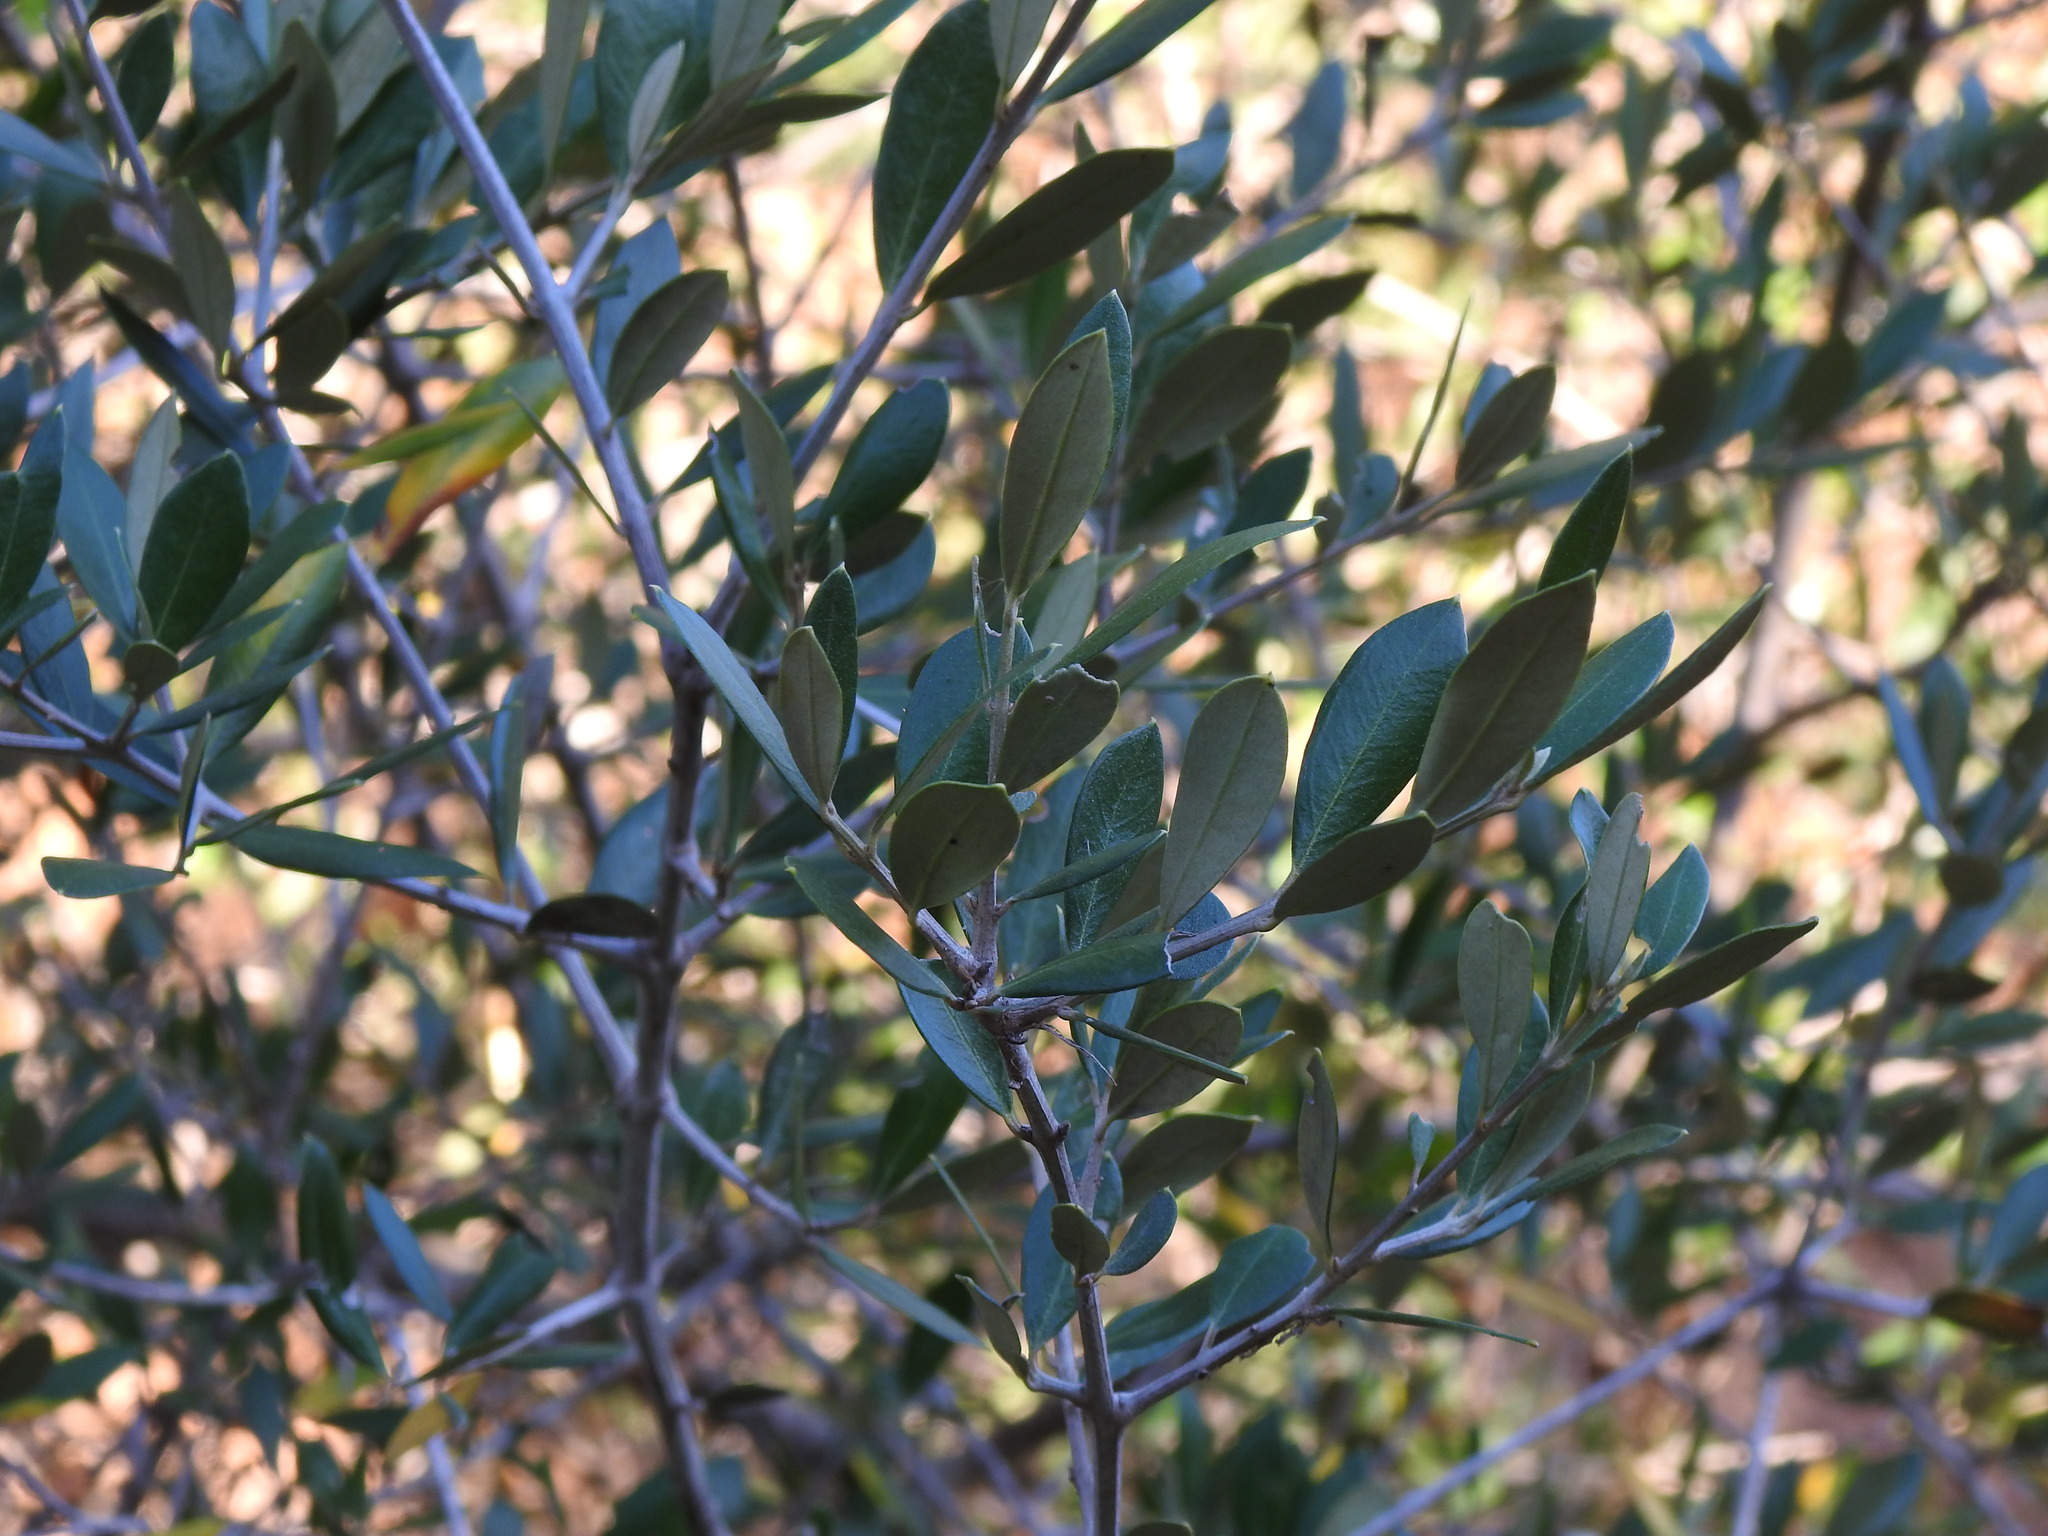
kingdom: Plantae
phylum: Tracheophyta
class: Magnoliopsida
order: Lamiales
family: Oleaceae
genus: Olea
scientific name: Olea europaea
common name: Olive
